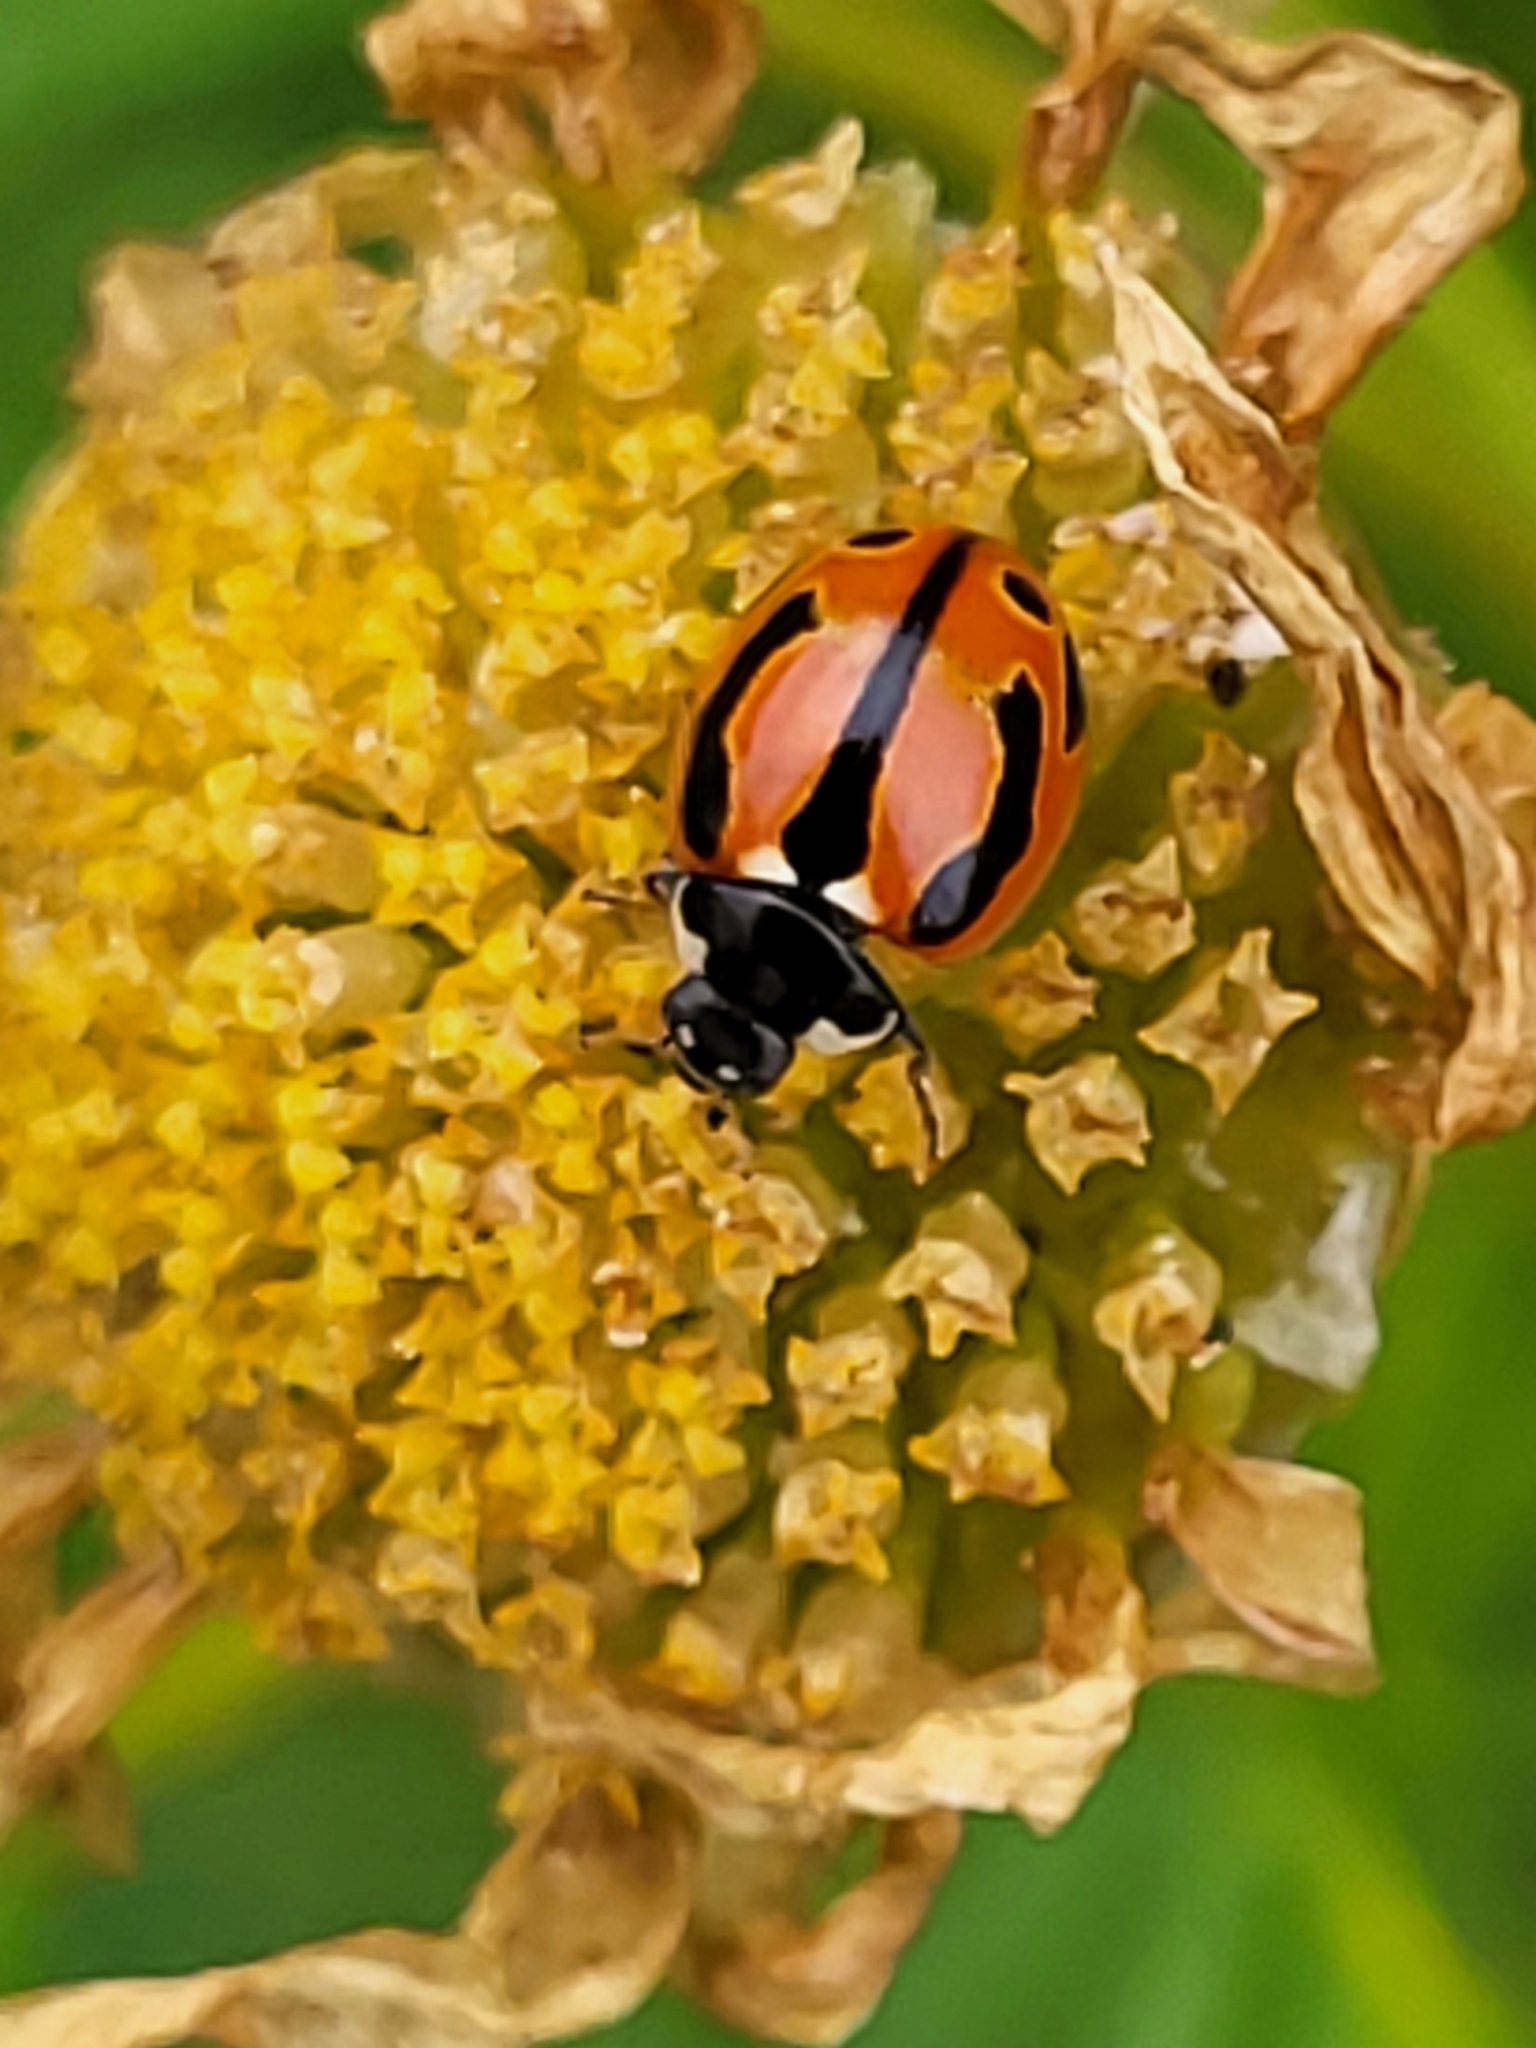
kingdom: Animalia
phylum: Arthropoda
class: Insecta
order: Coleoptera
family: Coccinellidae
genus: Coccinella
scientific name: Coccinella miranda
